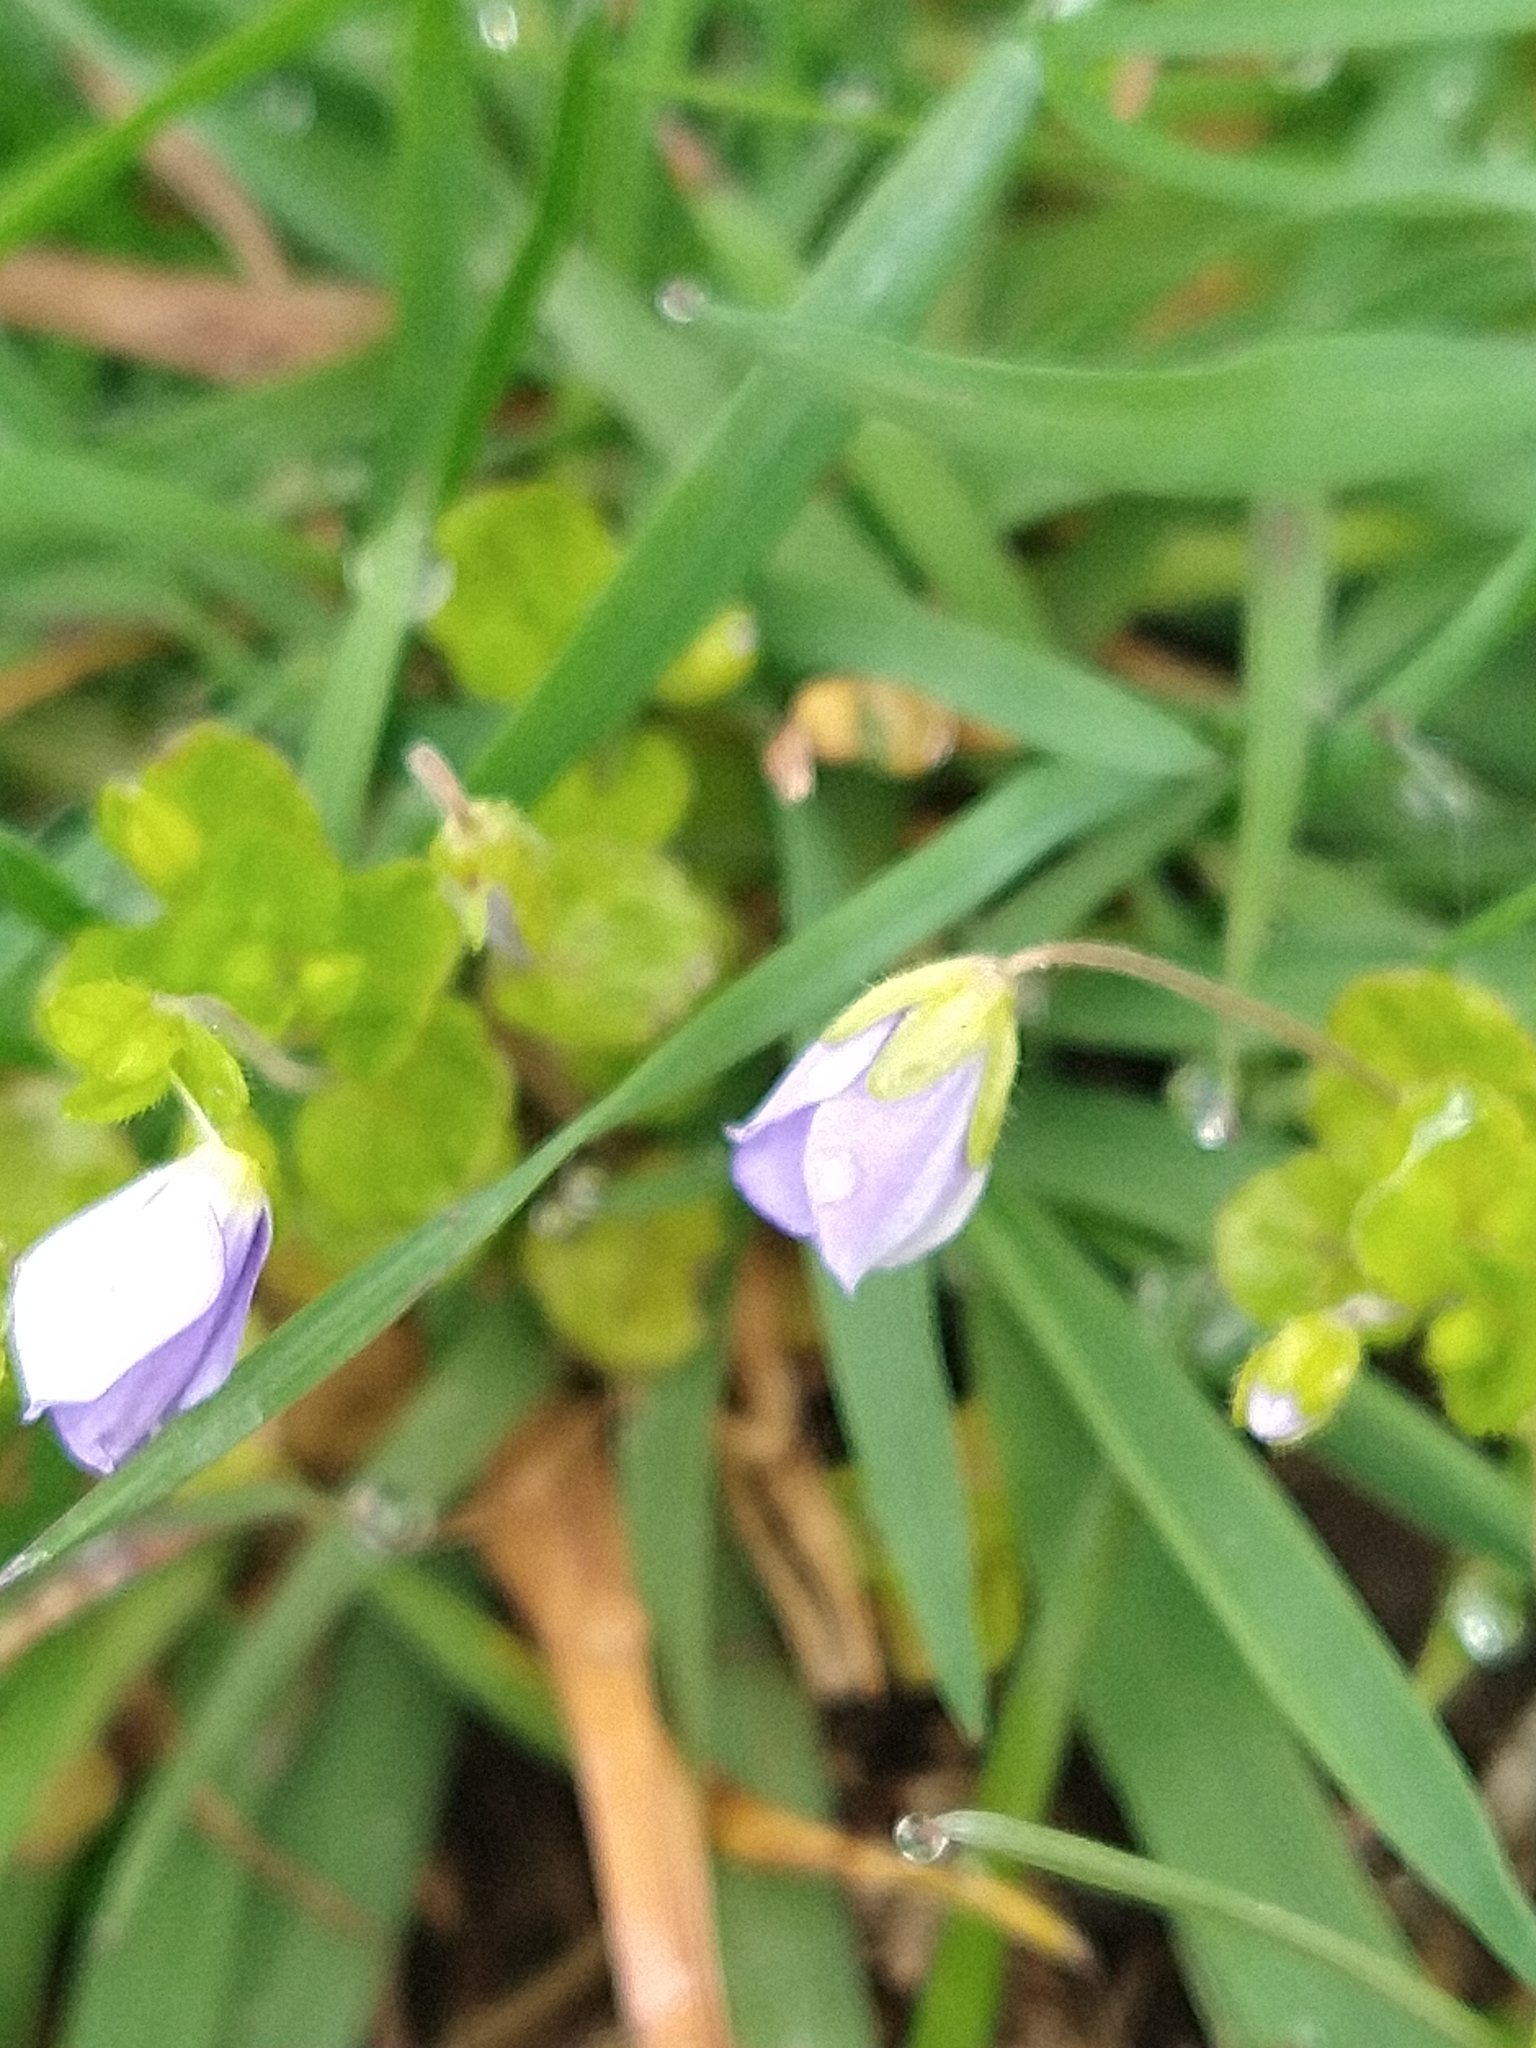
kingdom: Plantae
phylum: Tracheophyta
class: Magnoliopsida
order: Lamiales
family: Plantaginaceae
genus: Veronica
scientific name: Veronica filiformis
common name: Slender speedwell
